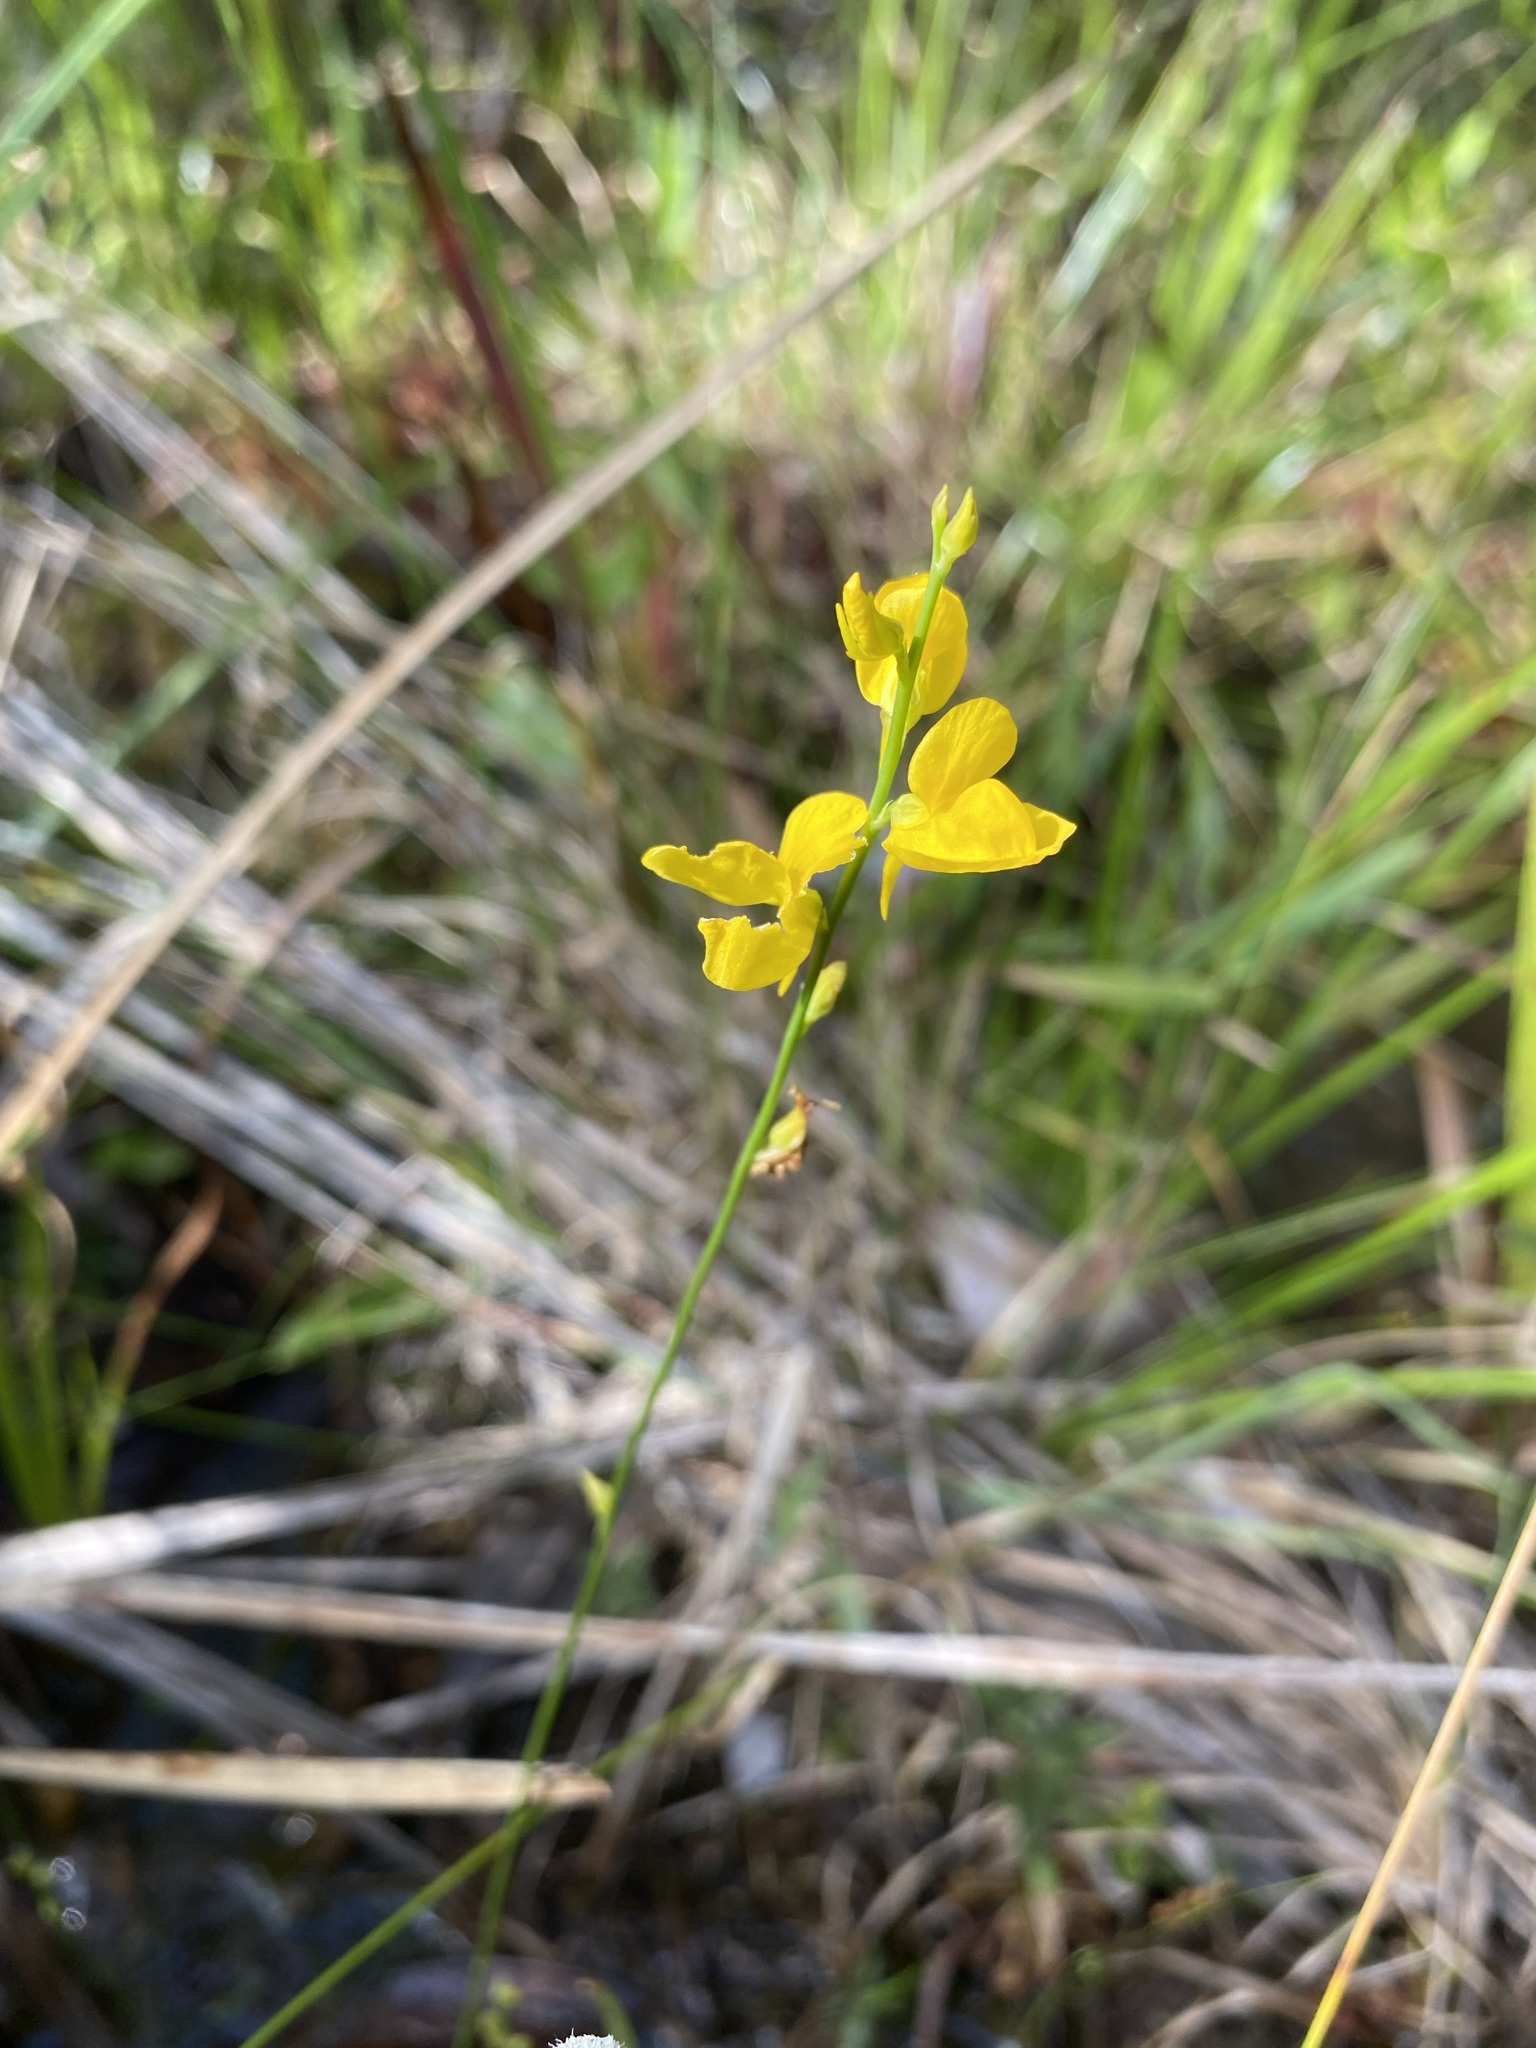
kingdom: Plantae
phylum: Tracheophyta
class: Magnoliopsida
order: Lamiales
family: Lentibulariaceae
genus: Utricularia
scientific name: Utricularia juncea
